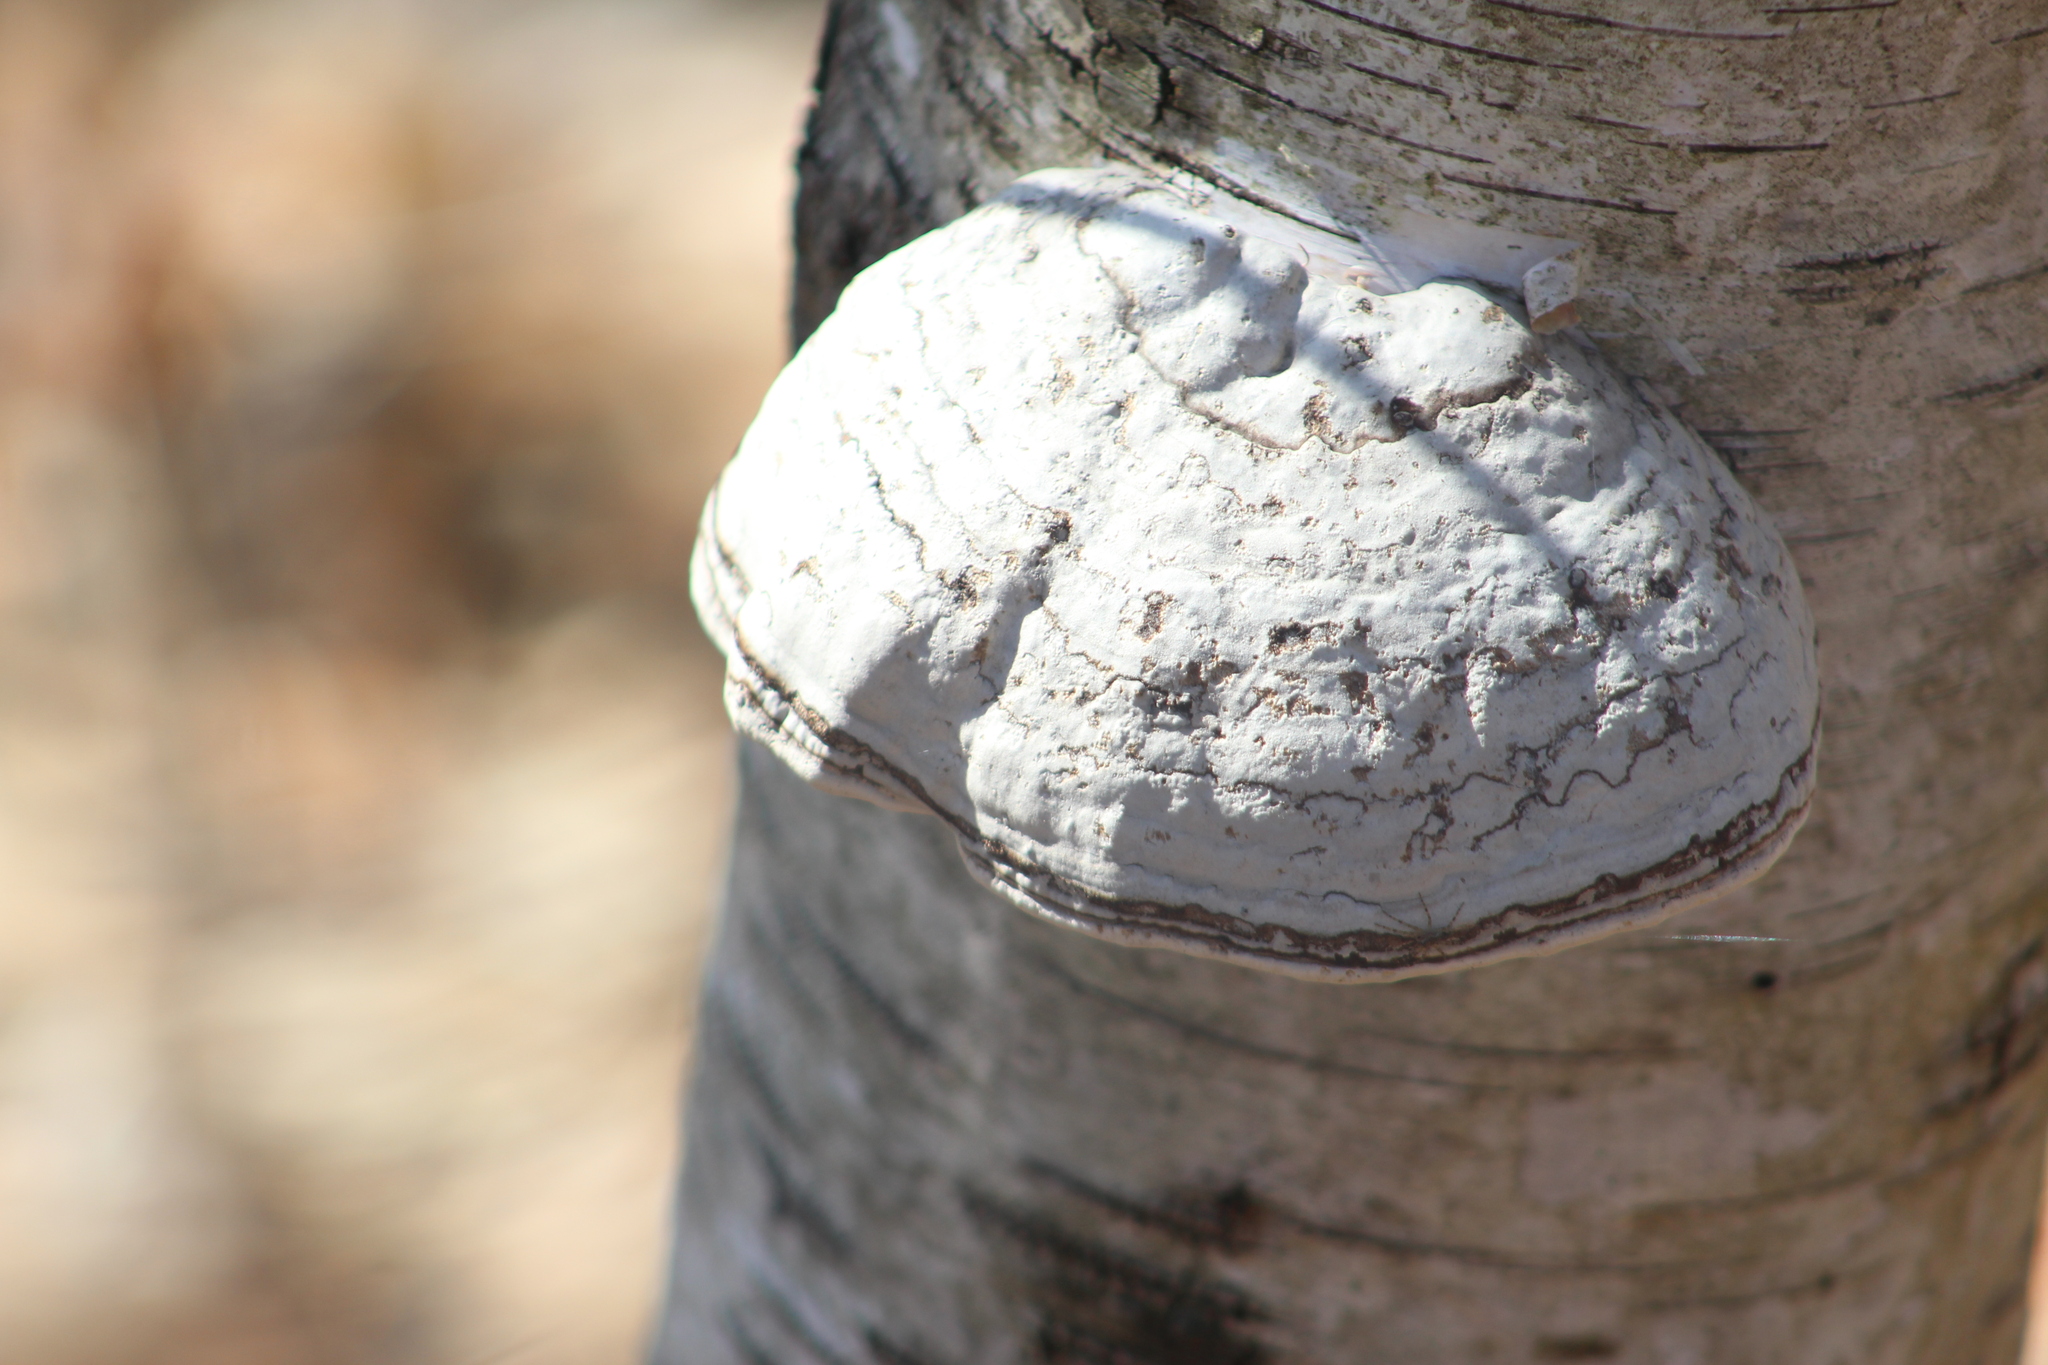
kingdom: Fungi
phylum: Basidiomycota
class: Agaricomycetes
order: Polyporales
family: Polyporaceae
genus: Fomes
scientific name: Fomes fomentarius
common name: Hoof fungus
